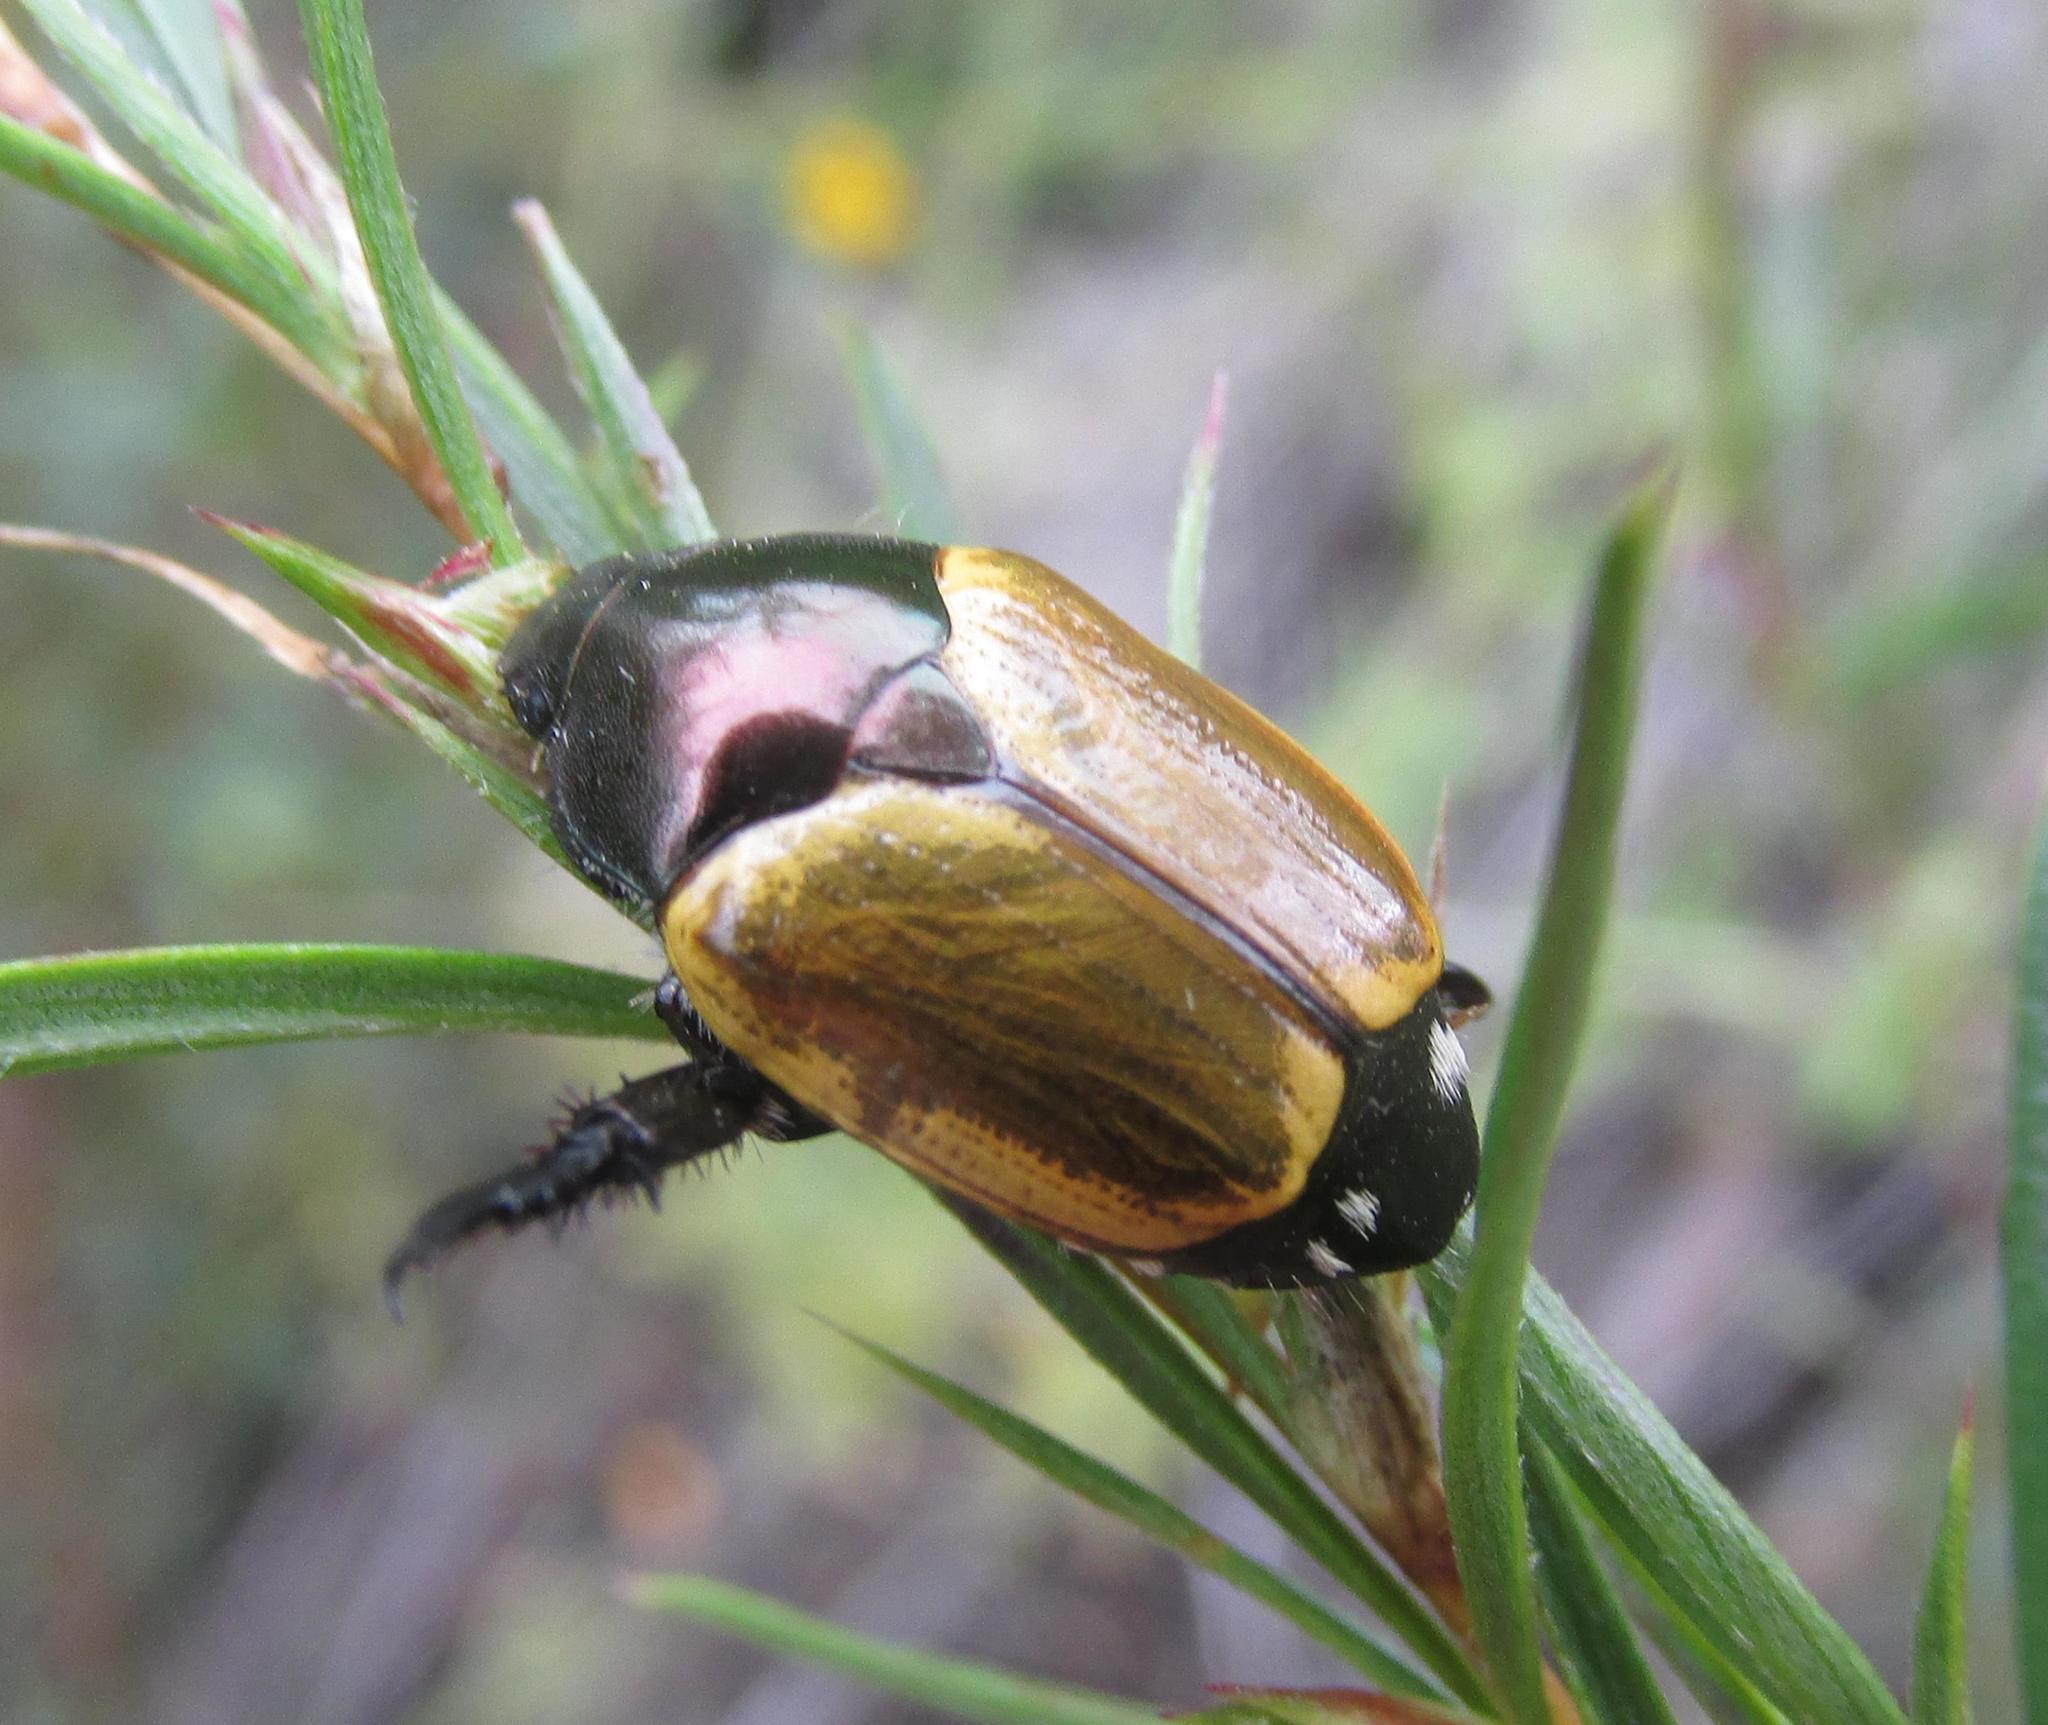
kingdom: Animalia
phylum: Arthropoda
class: Insecta
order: Coleoptera
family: Scarabaeidae
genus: Popillia
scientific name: Popillia bipunctata
